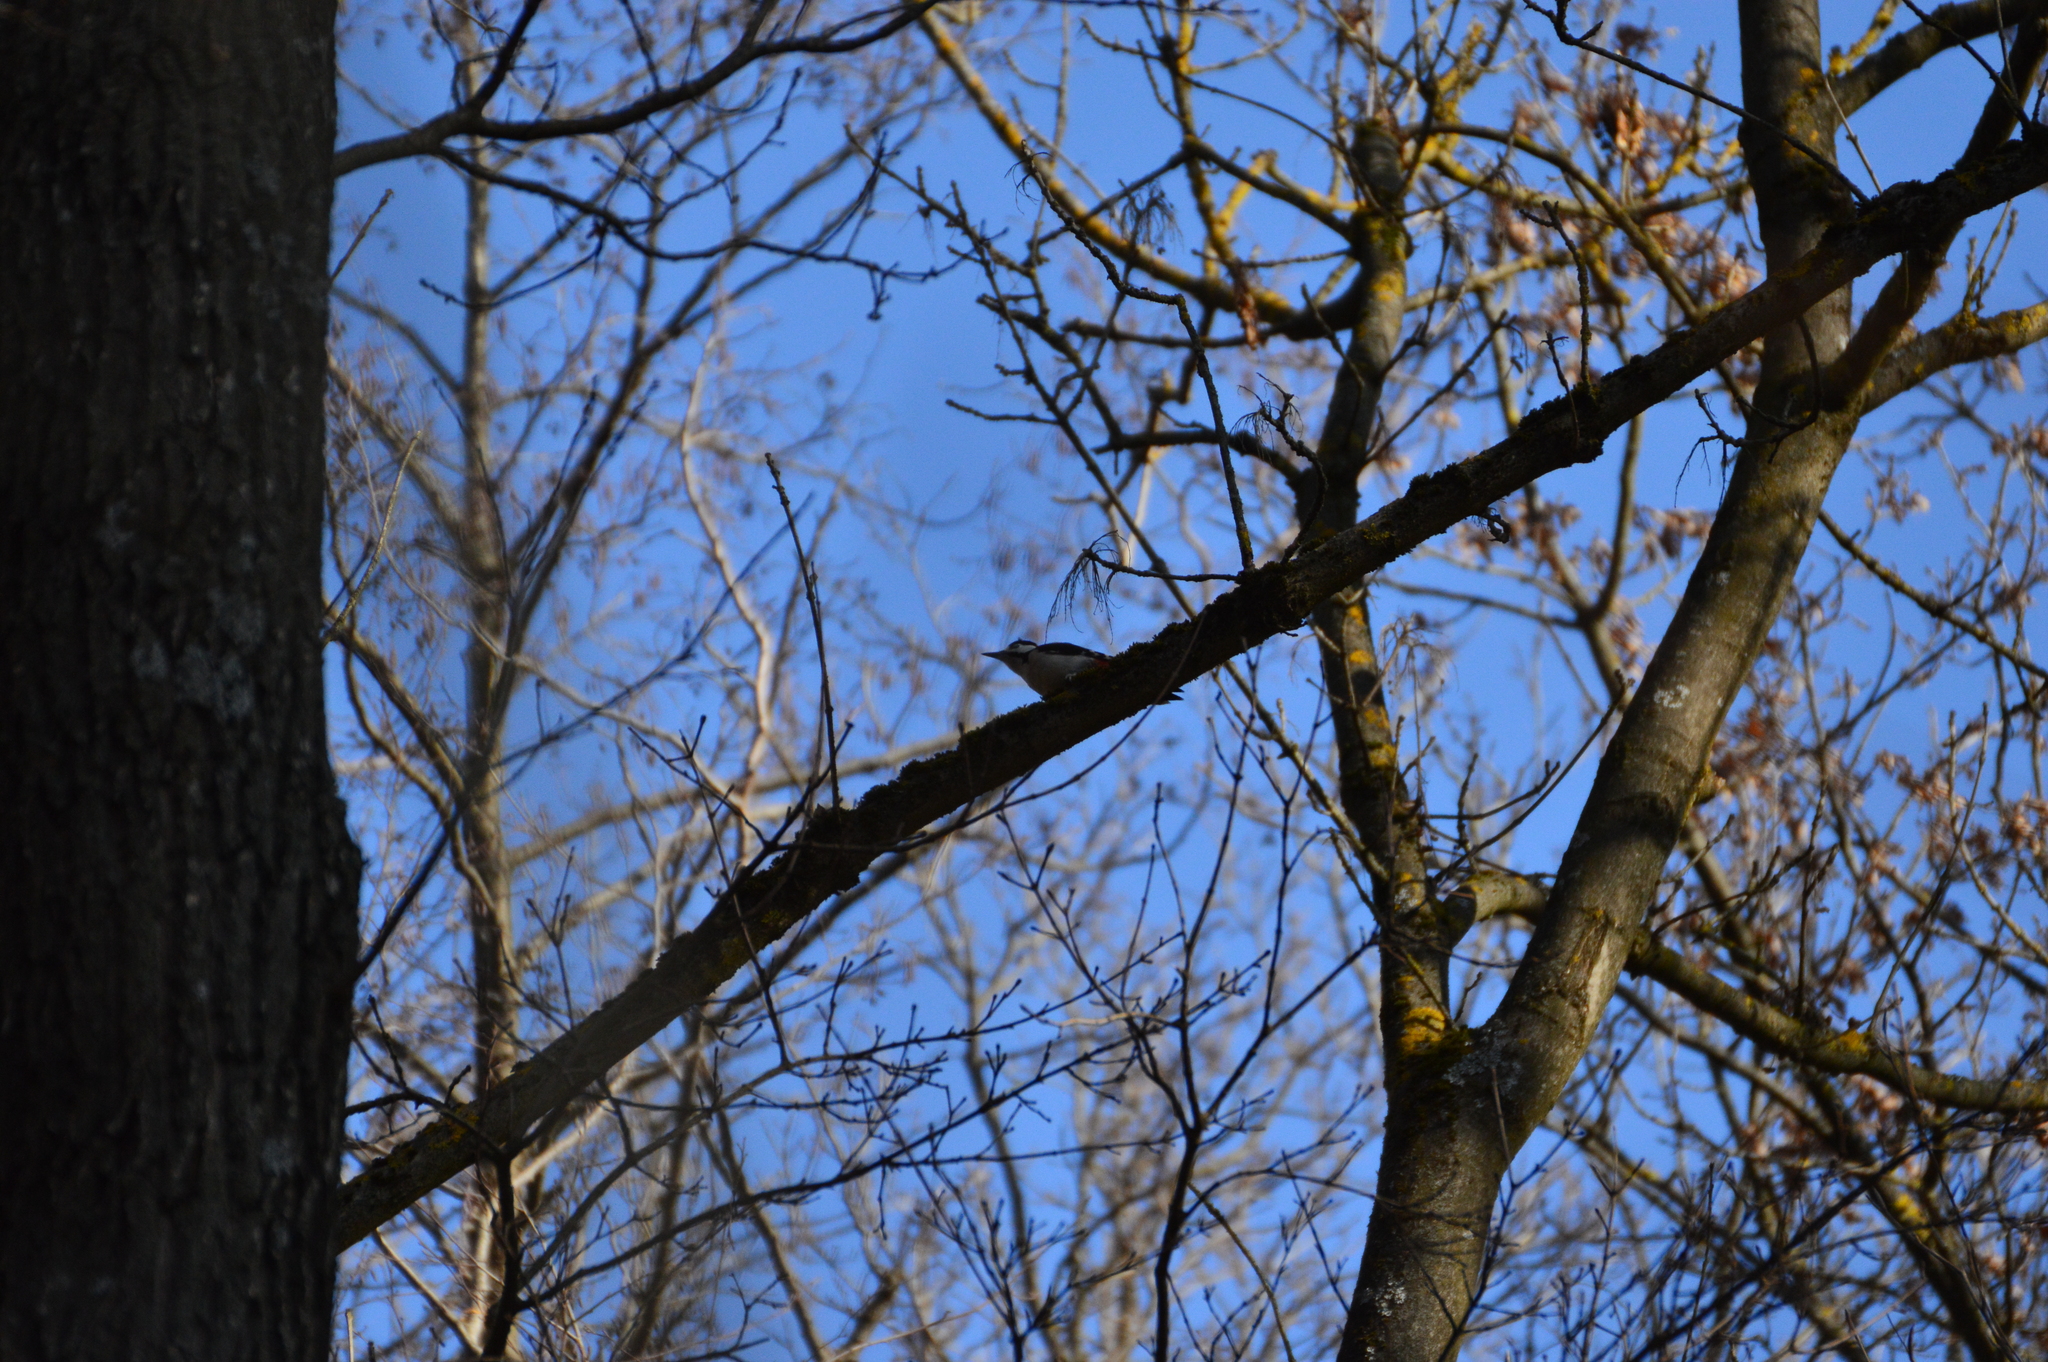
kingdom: Animalia
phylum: Chordata
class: Aves
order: Piciformes
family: Picidae
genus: Dendrocopos
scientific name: Dendrocopos major
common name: Great spotted woodpecker
